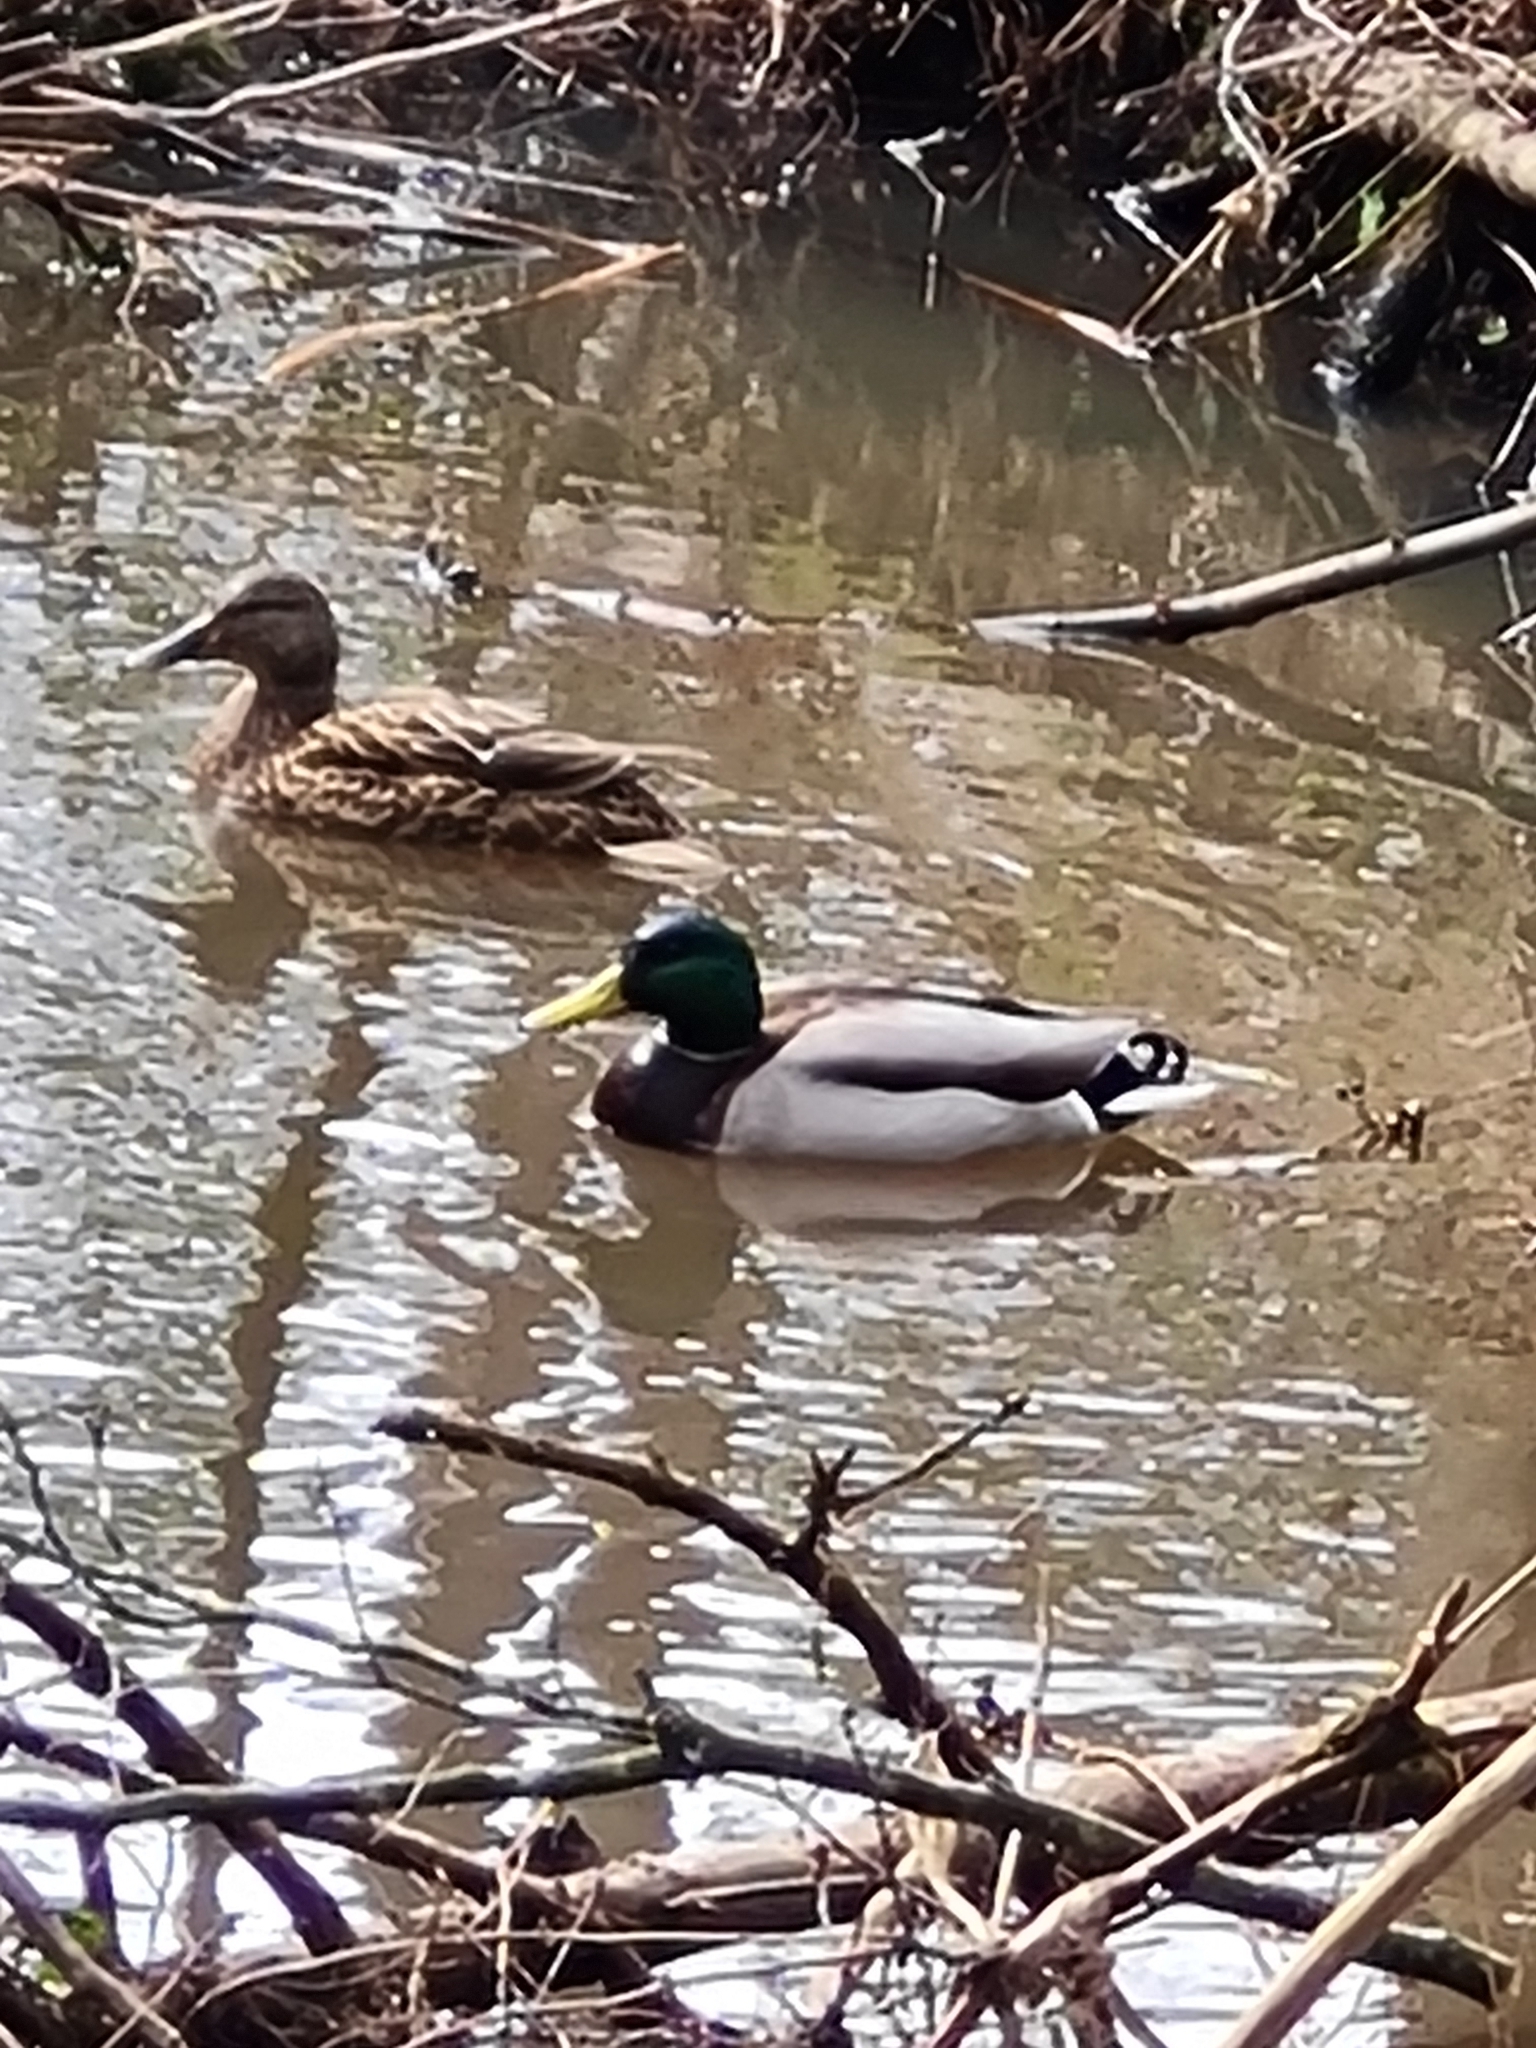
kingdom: Animalia
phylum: Chordata
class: Aves
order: Anseriformes
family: Anatidae
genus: Anas
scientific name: Anas platyrhynchos
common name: Mallard
